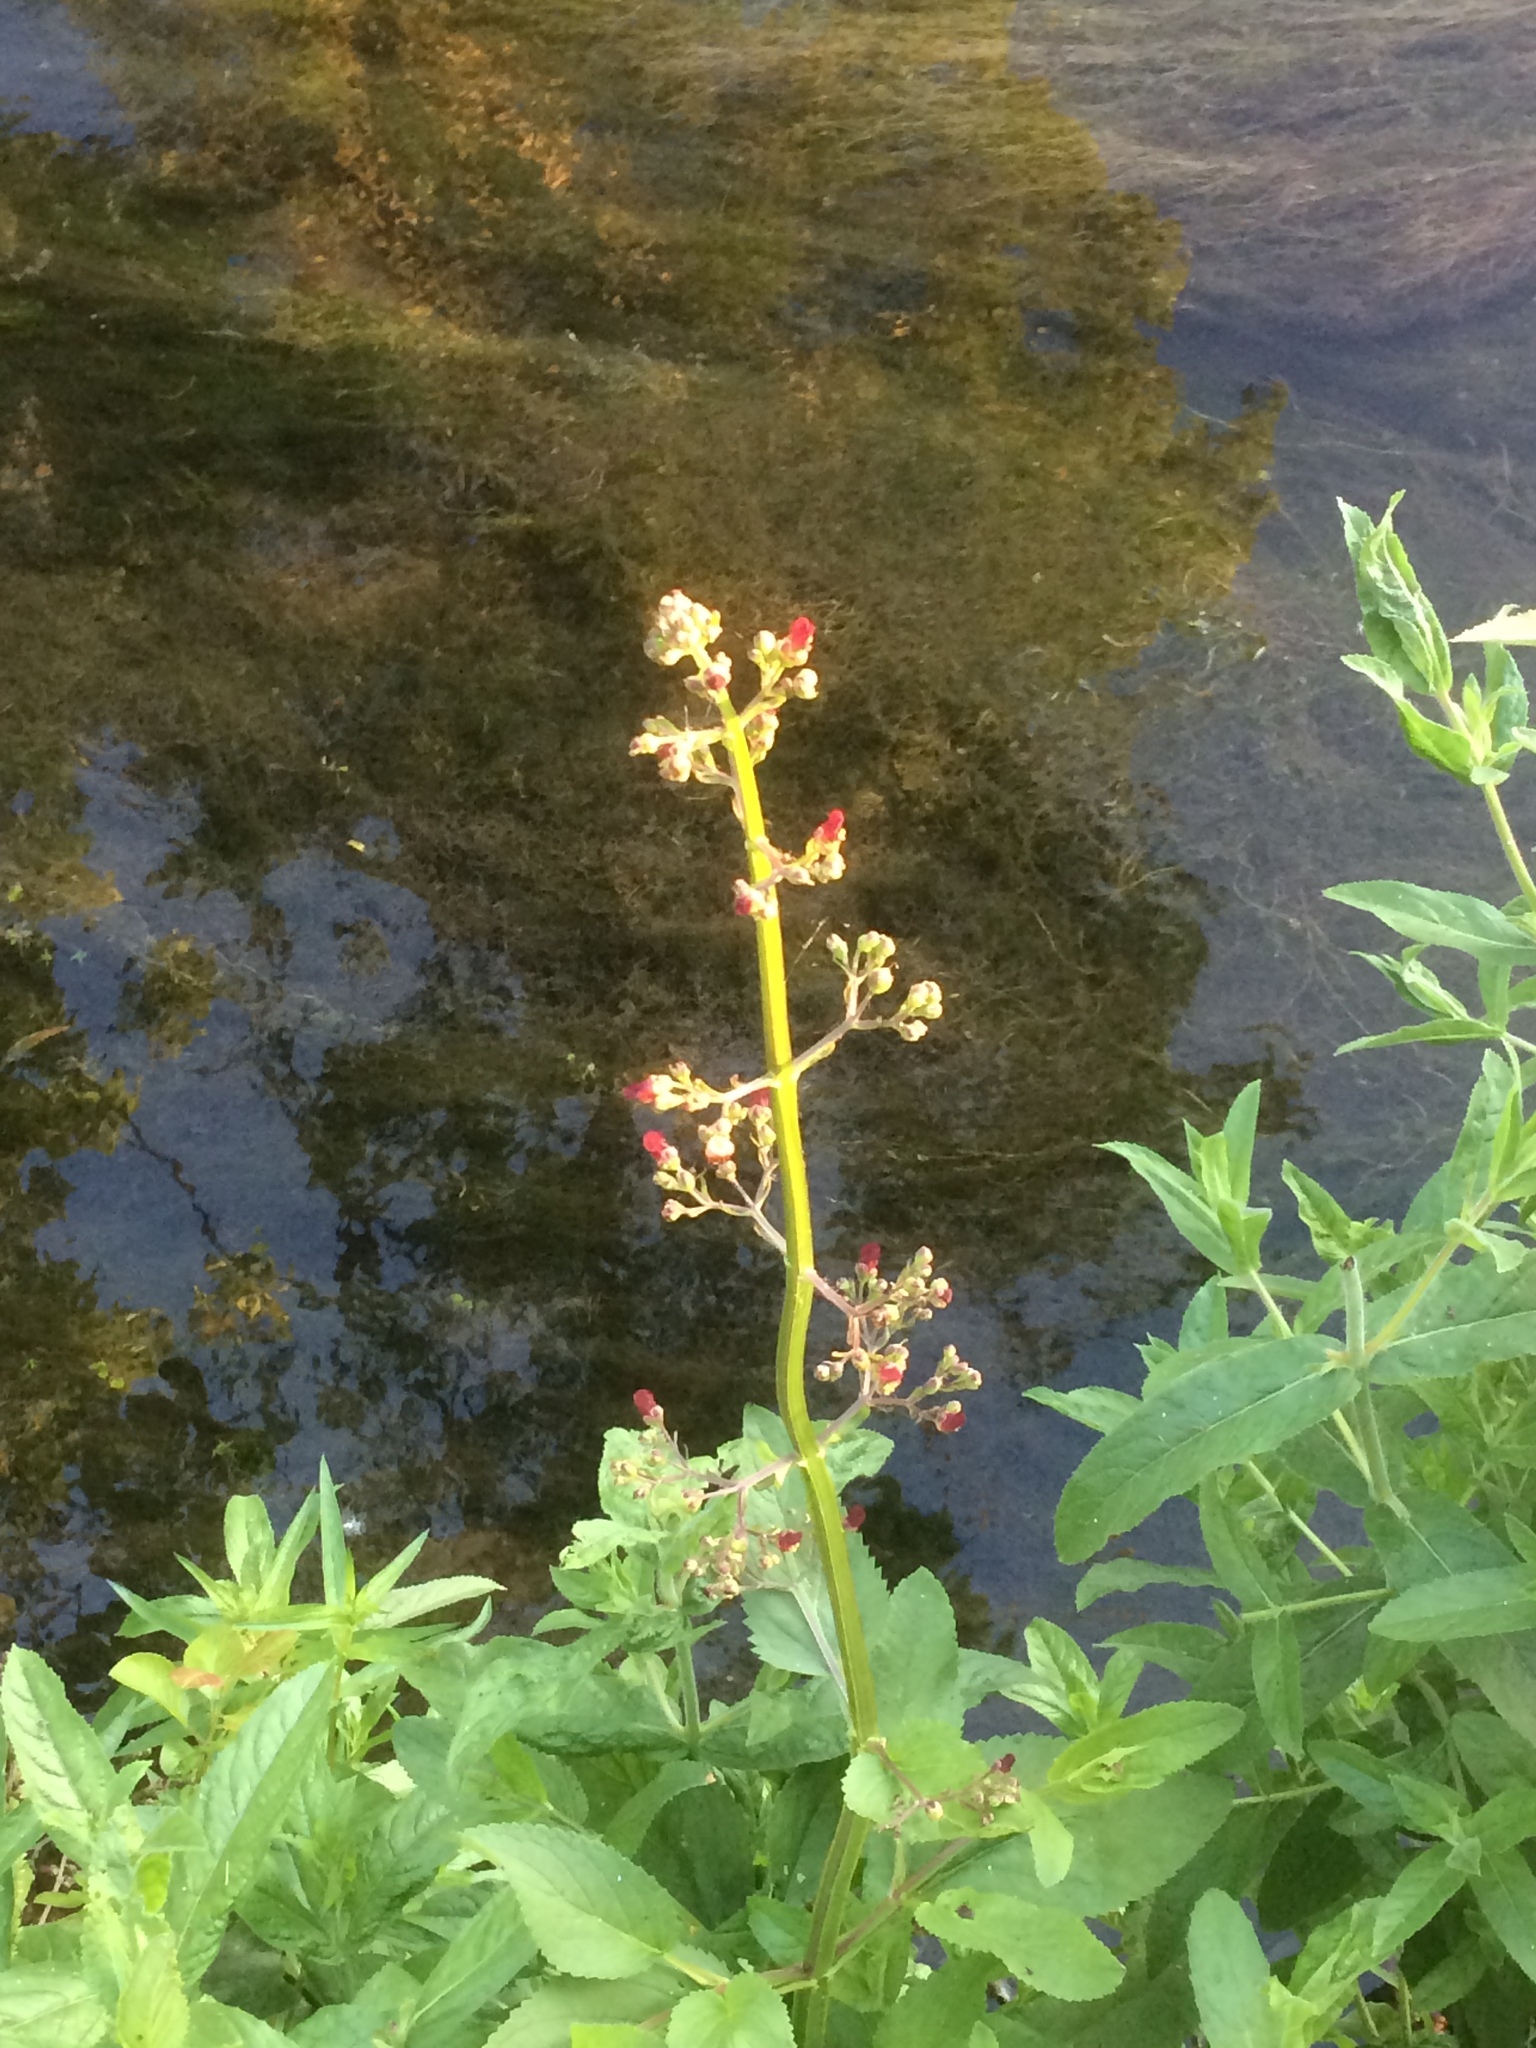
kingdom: Plantae
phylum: Tracheophyta
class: Magnoliopsida
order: Lamiales
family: Scrophulariaceae
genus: Scrophularia
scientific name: Scrophularia auriculata
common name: Water betony
